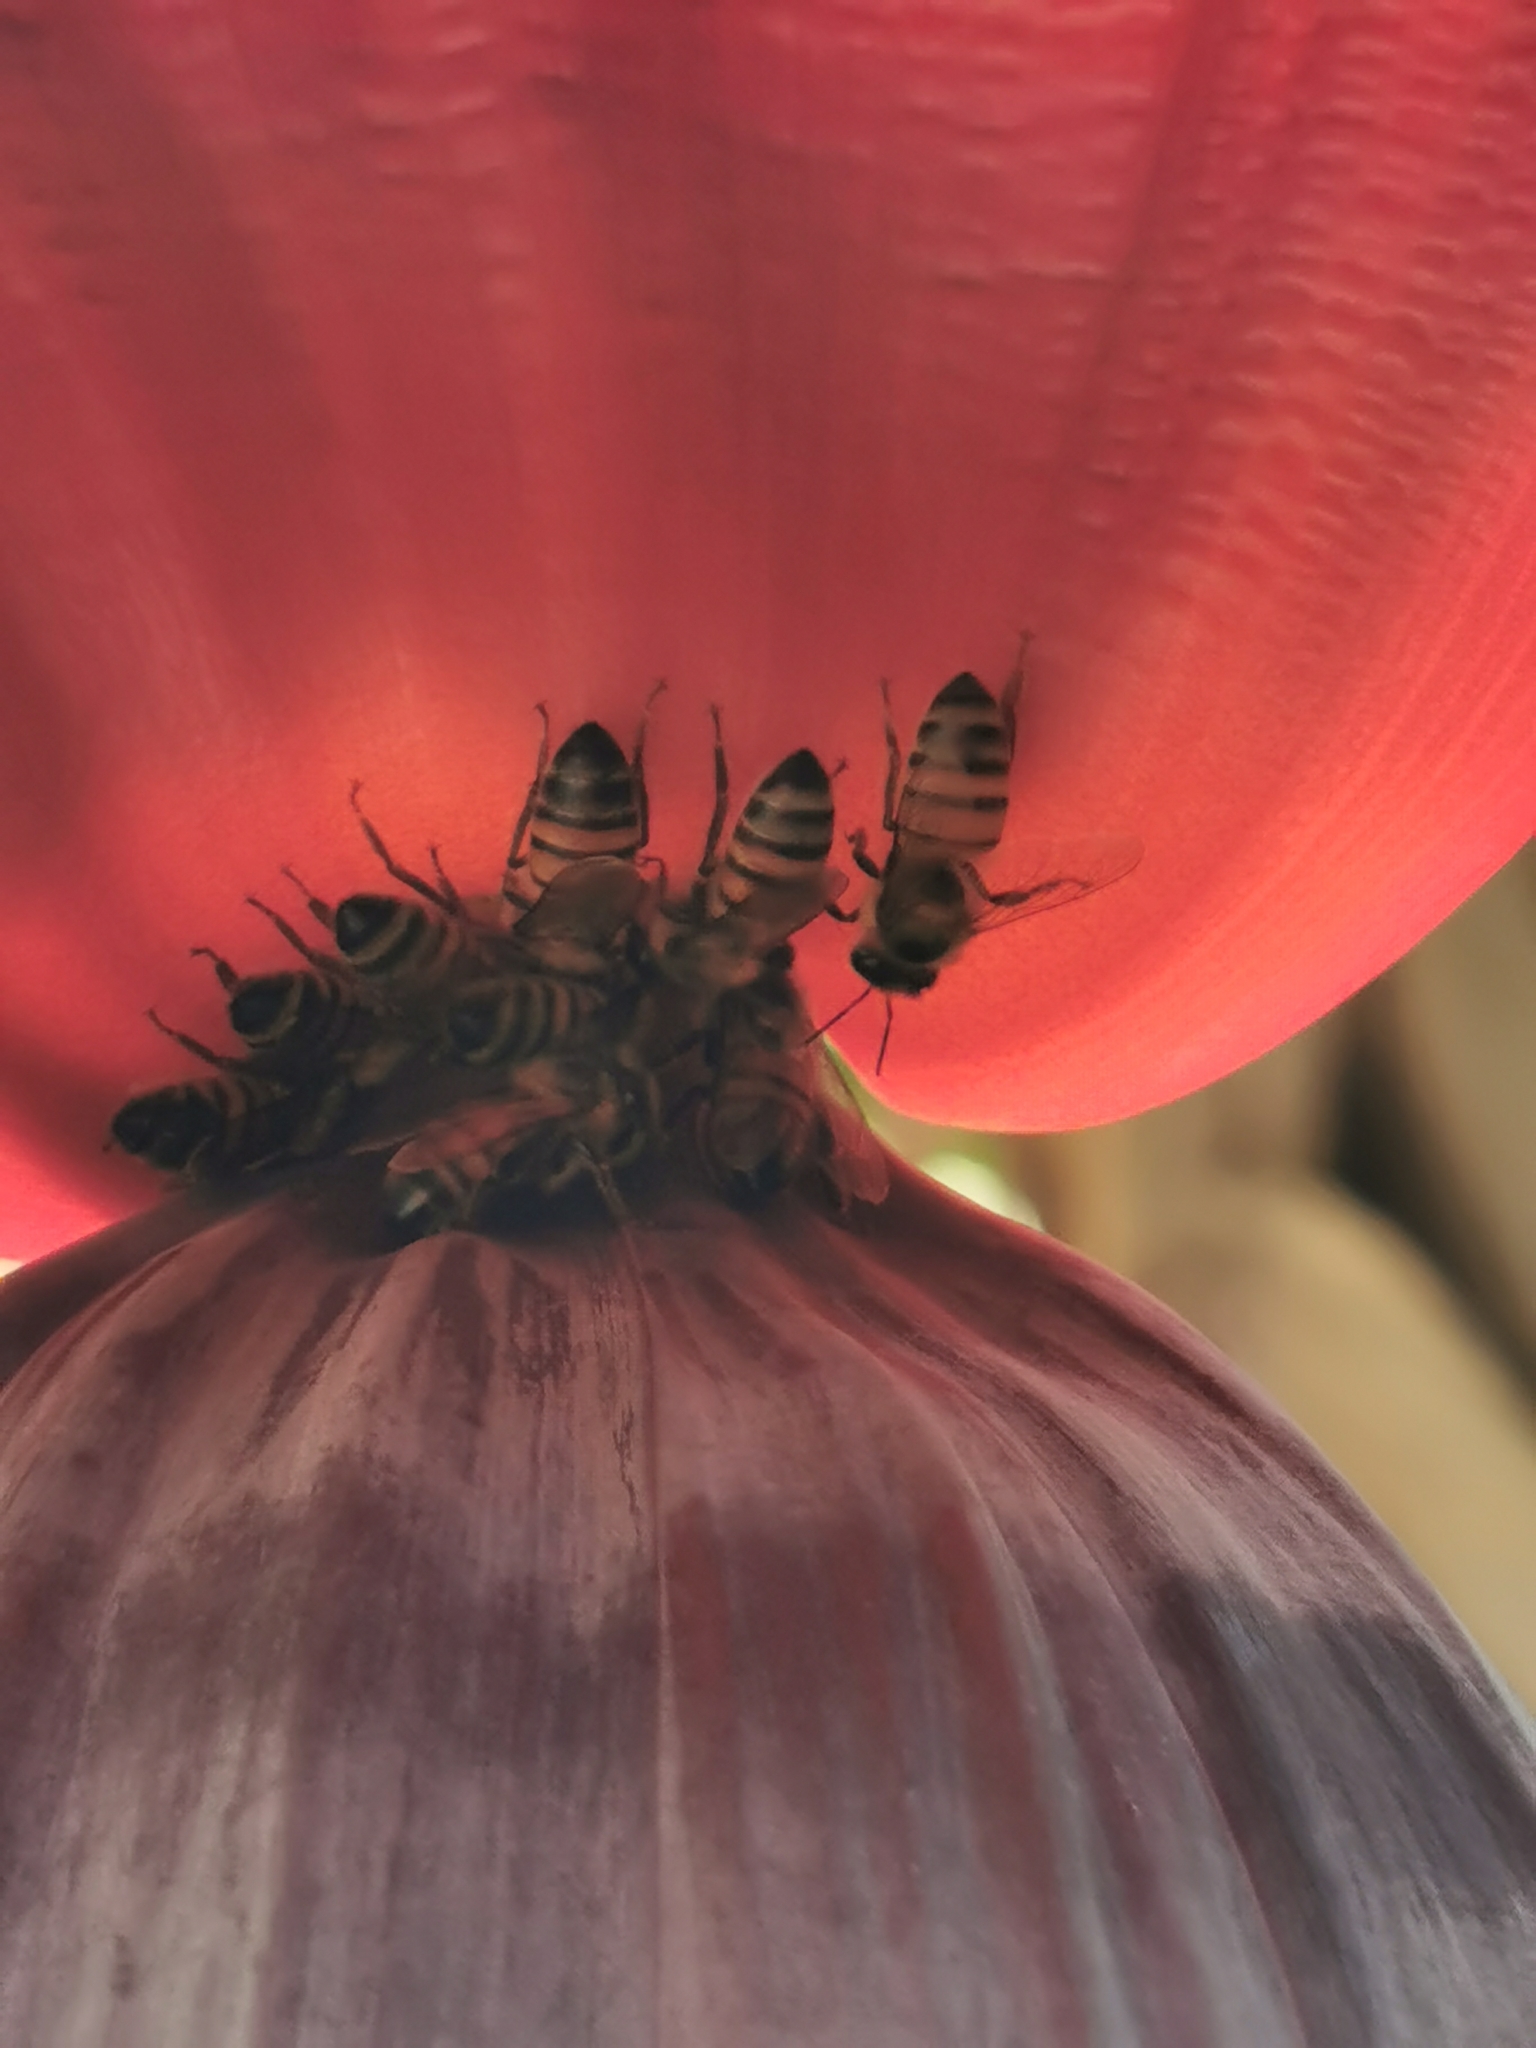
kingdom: Animalia
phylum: Arthropoda
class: Insecta
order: Hymenoptera
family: Apidae
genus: Apis
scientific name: Apis mellifera
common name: Honey bee
